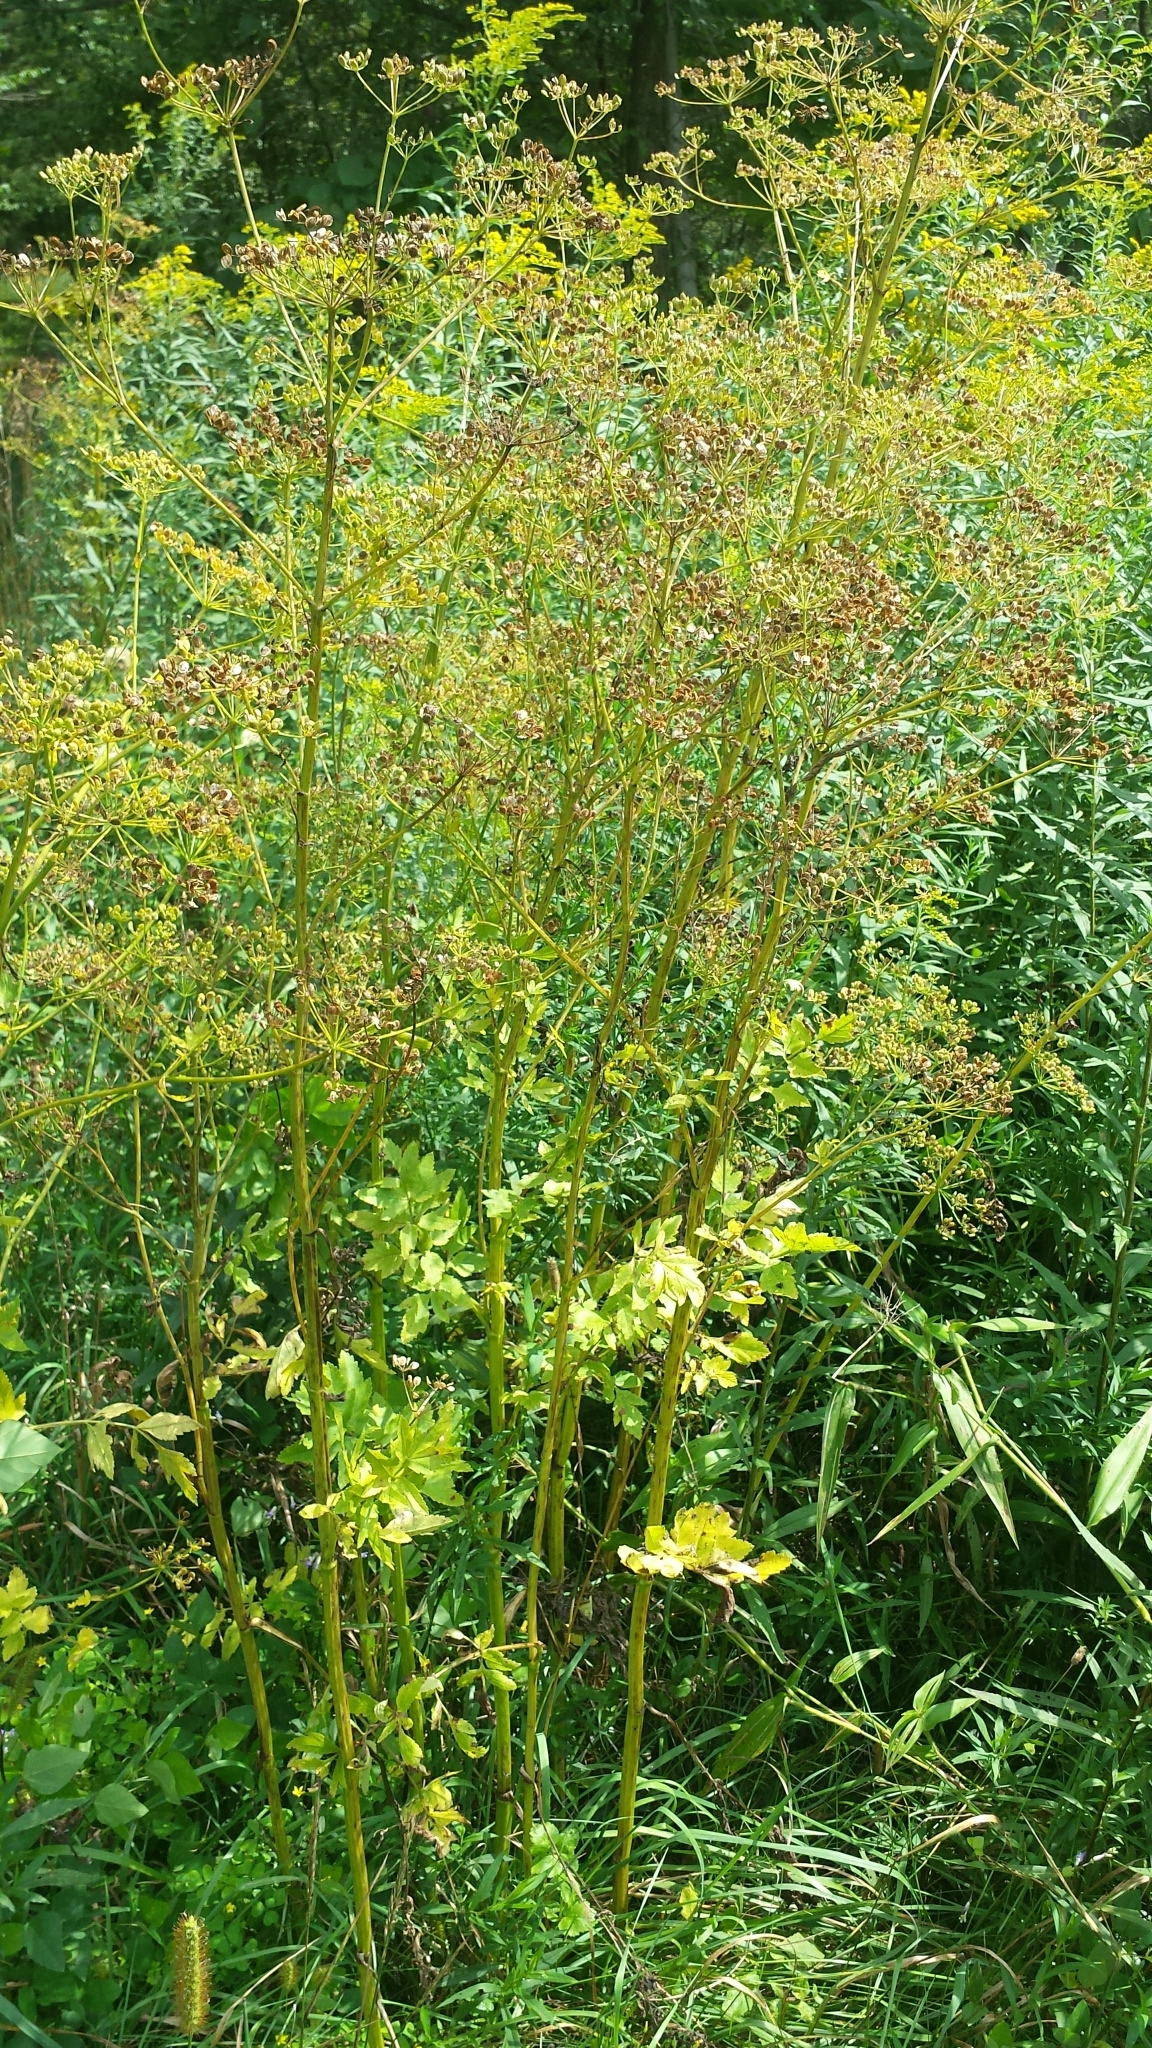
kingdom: Plantae
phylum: Tracheophyta
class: Magnoliopsida
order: Apiales
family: Apiaceae
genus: Pastinaca
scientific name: Pastinaca sativa
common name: Wild parsnip
